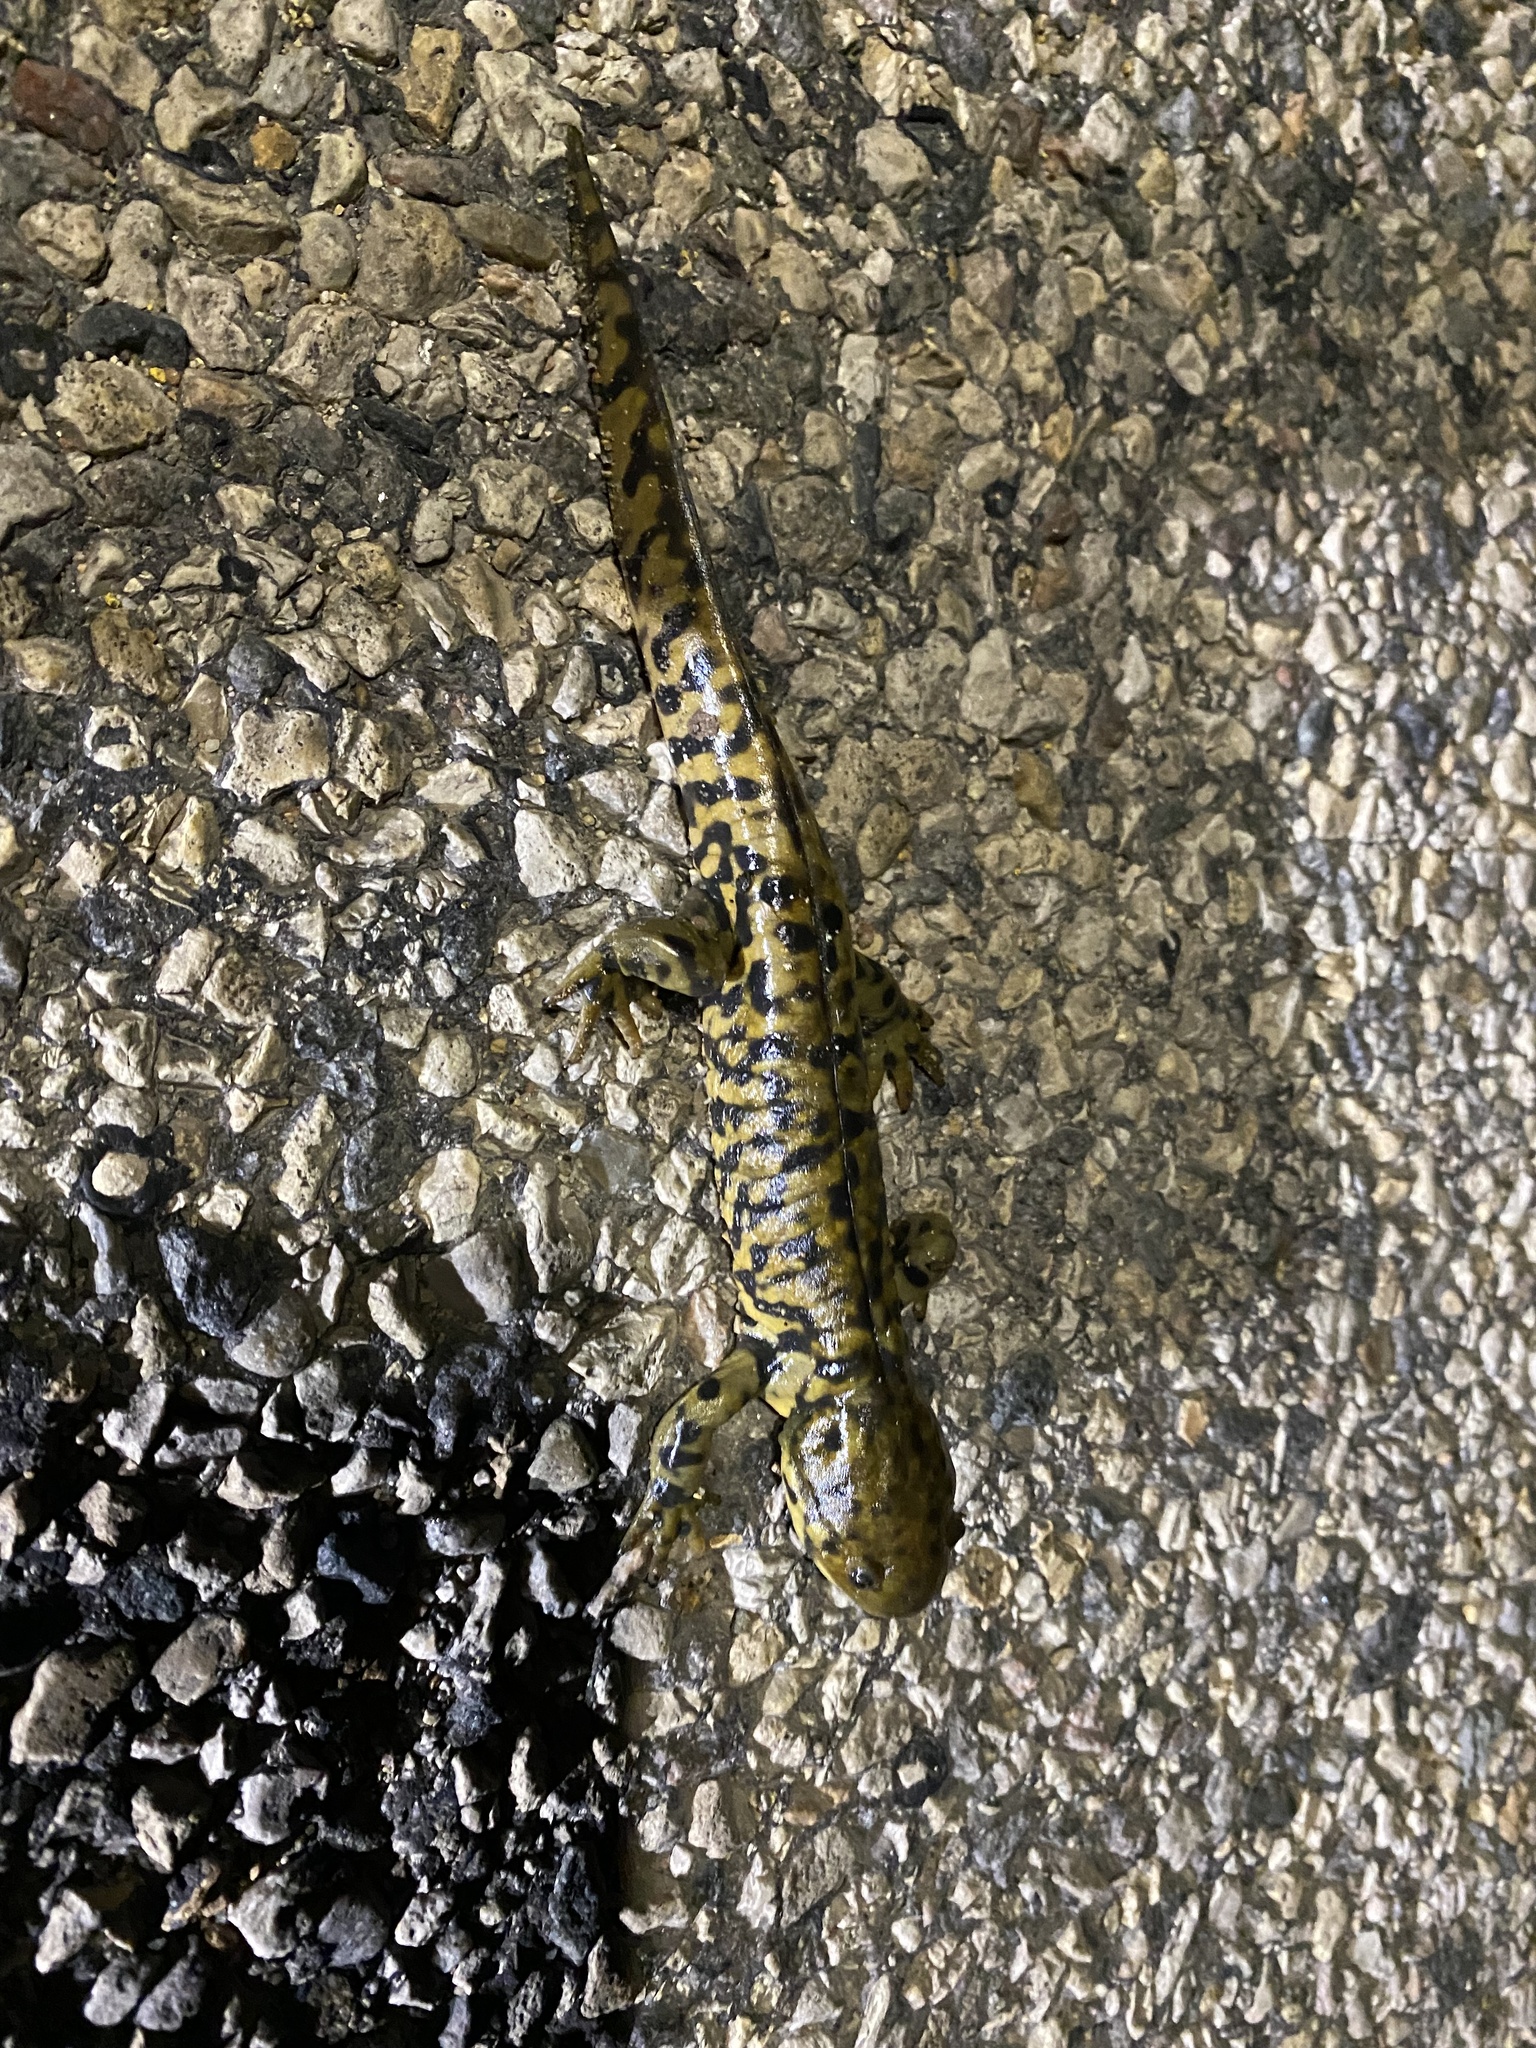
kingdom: Animalia
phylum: Chordata
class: Amphibia
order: Caudata
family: Ambystomatidae
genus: Ambystoma
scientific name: Ambystoma mavortium
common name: Western tiger salamander
